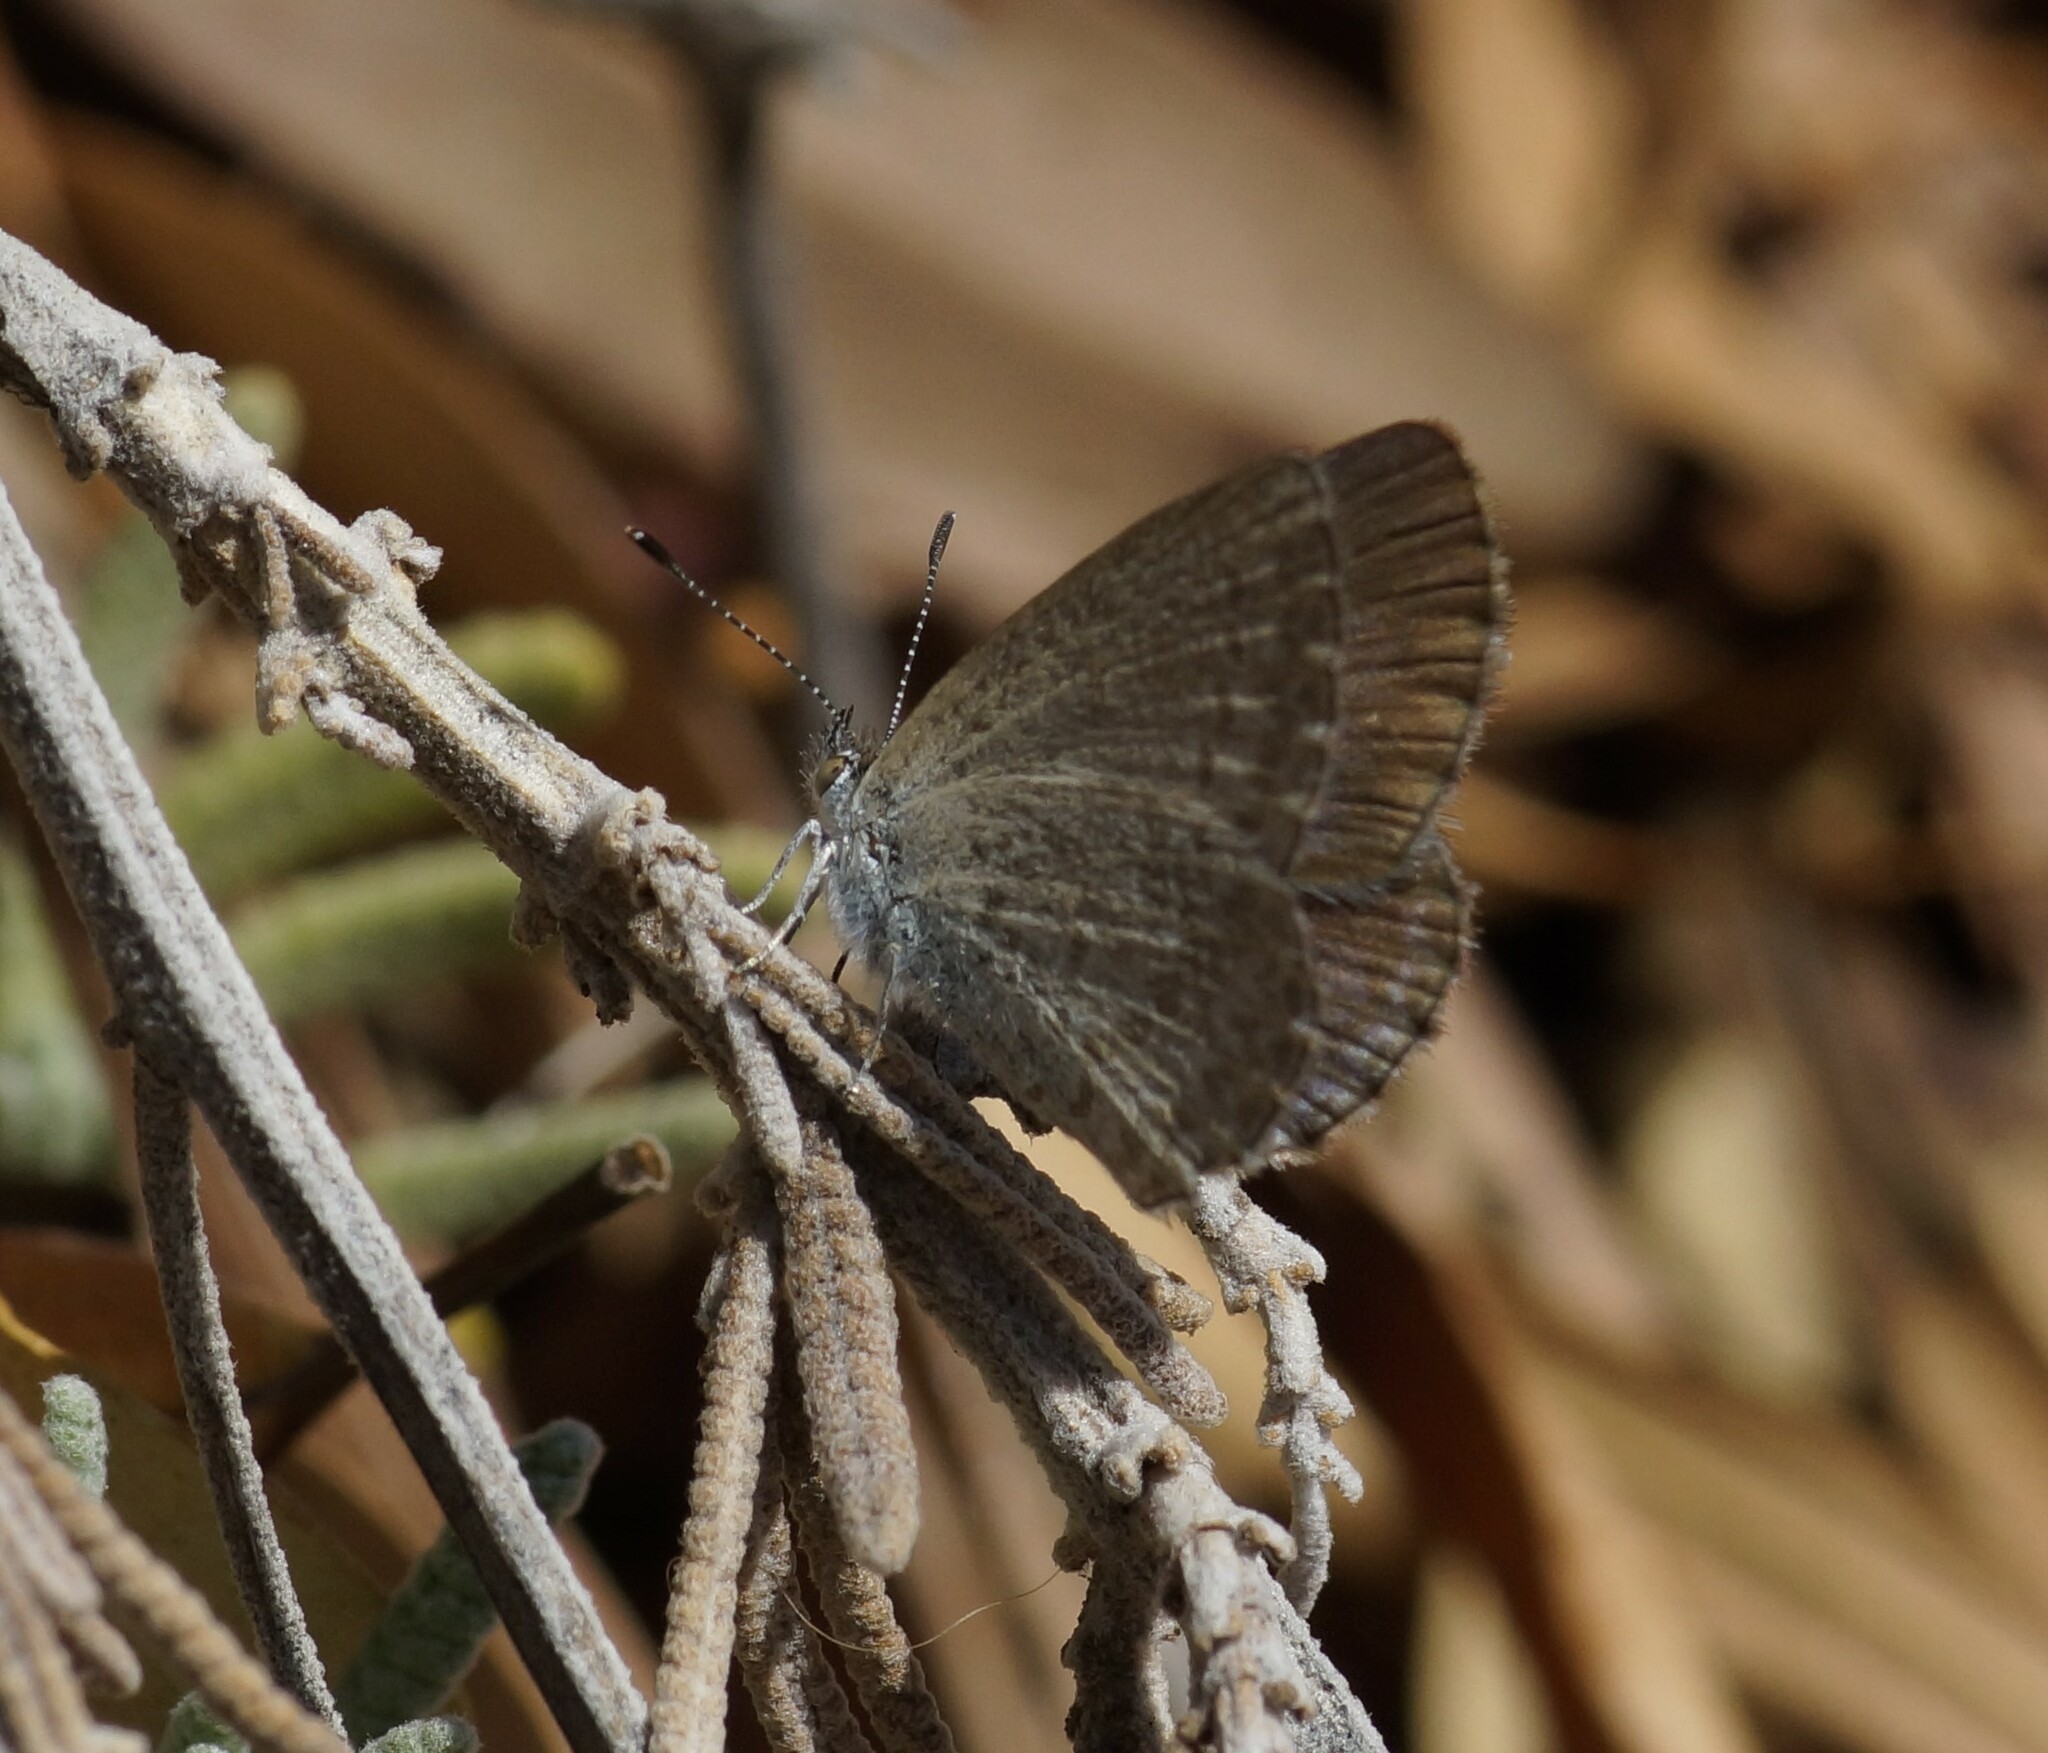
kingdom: Animalia
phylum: Arthropoda
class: Insecta
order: Lepidoptera
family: Lycaenidae
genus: Zizina
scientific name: Zizina otis
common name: Lesser grass blue
